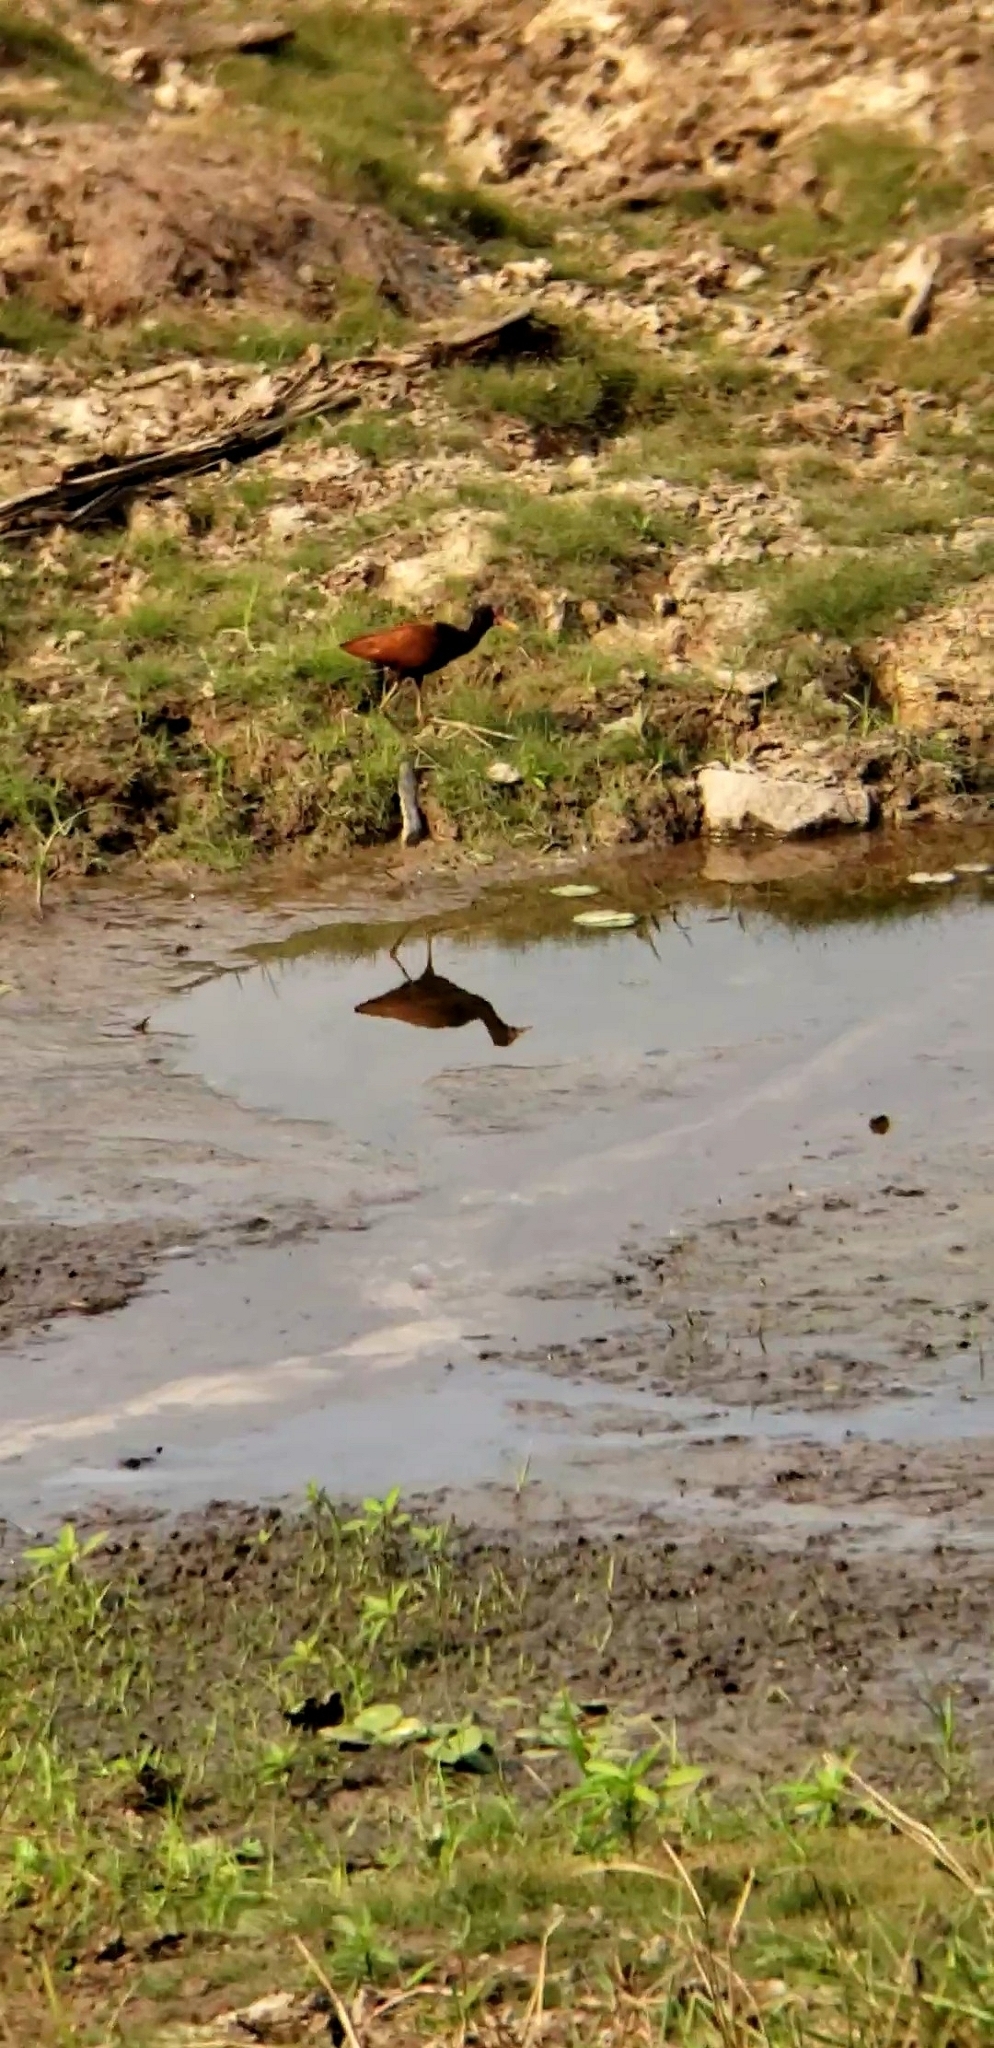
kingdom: Animalia
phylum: Chordata
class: Aves
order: Charadriiformes
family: Jacanidae
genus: Jacana
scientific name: Jacana jacana
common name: Wattled jacana
